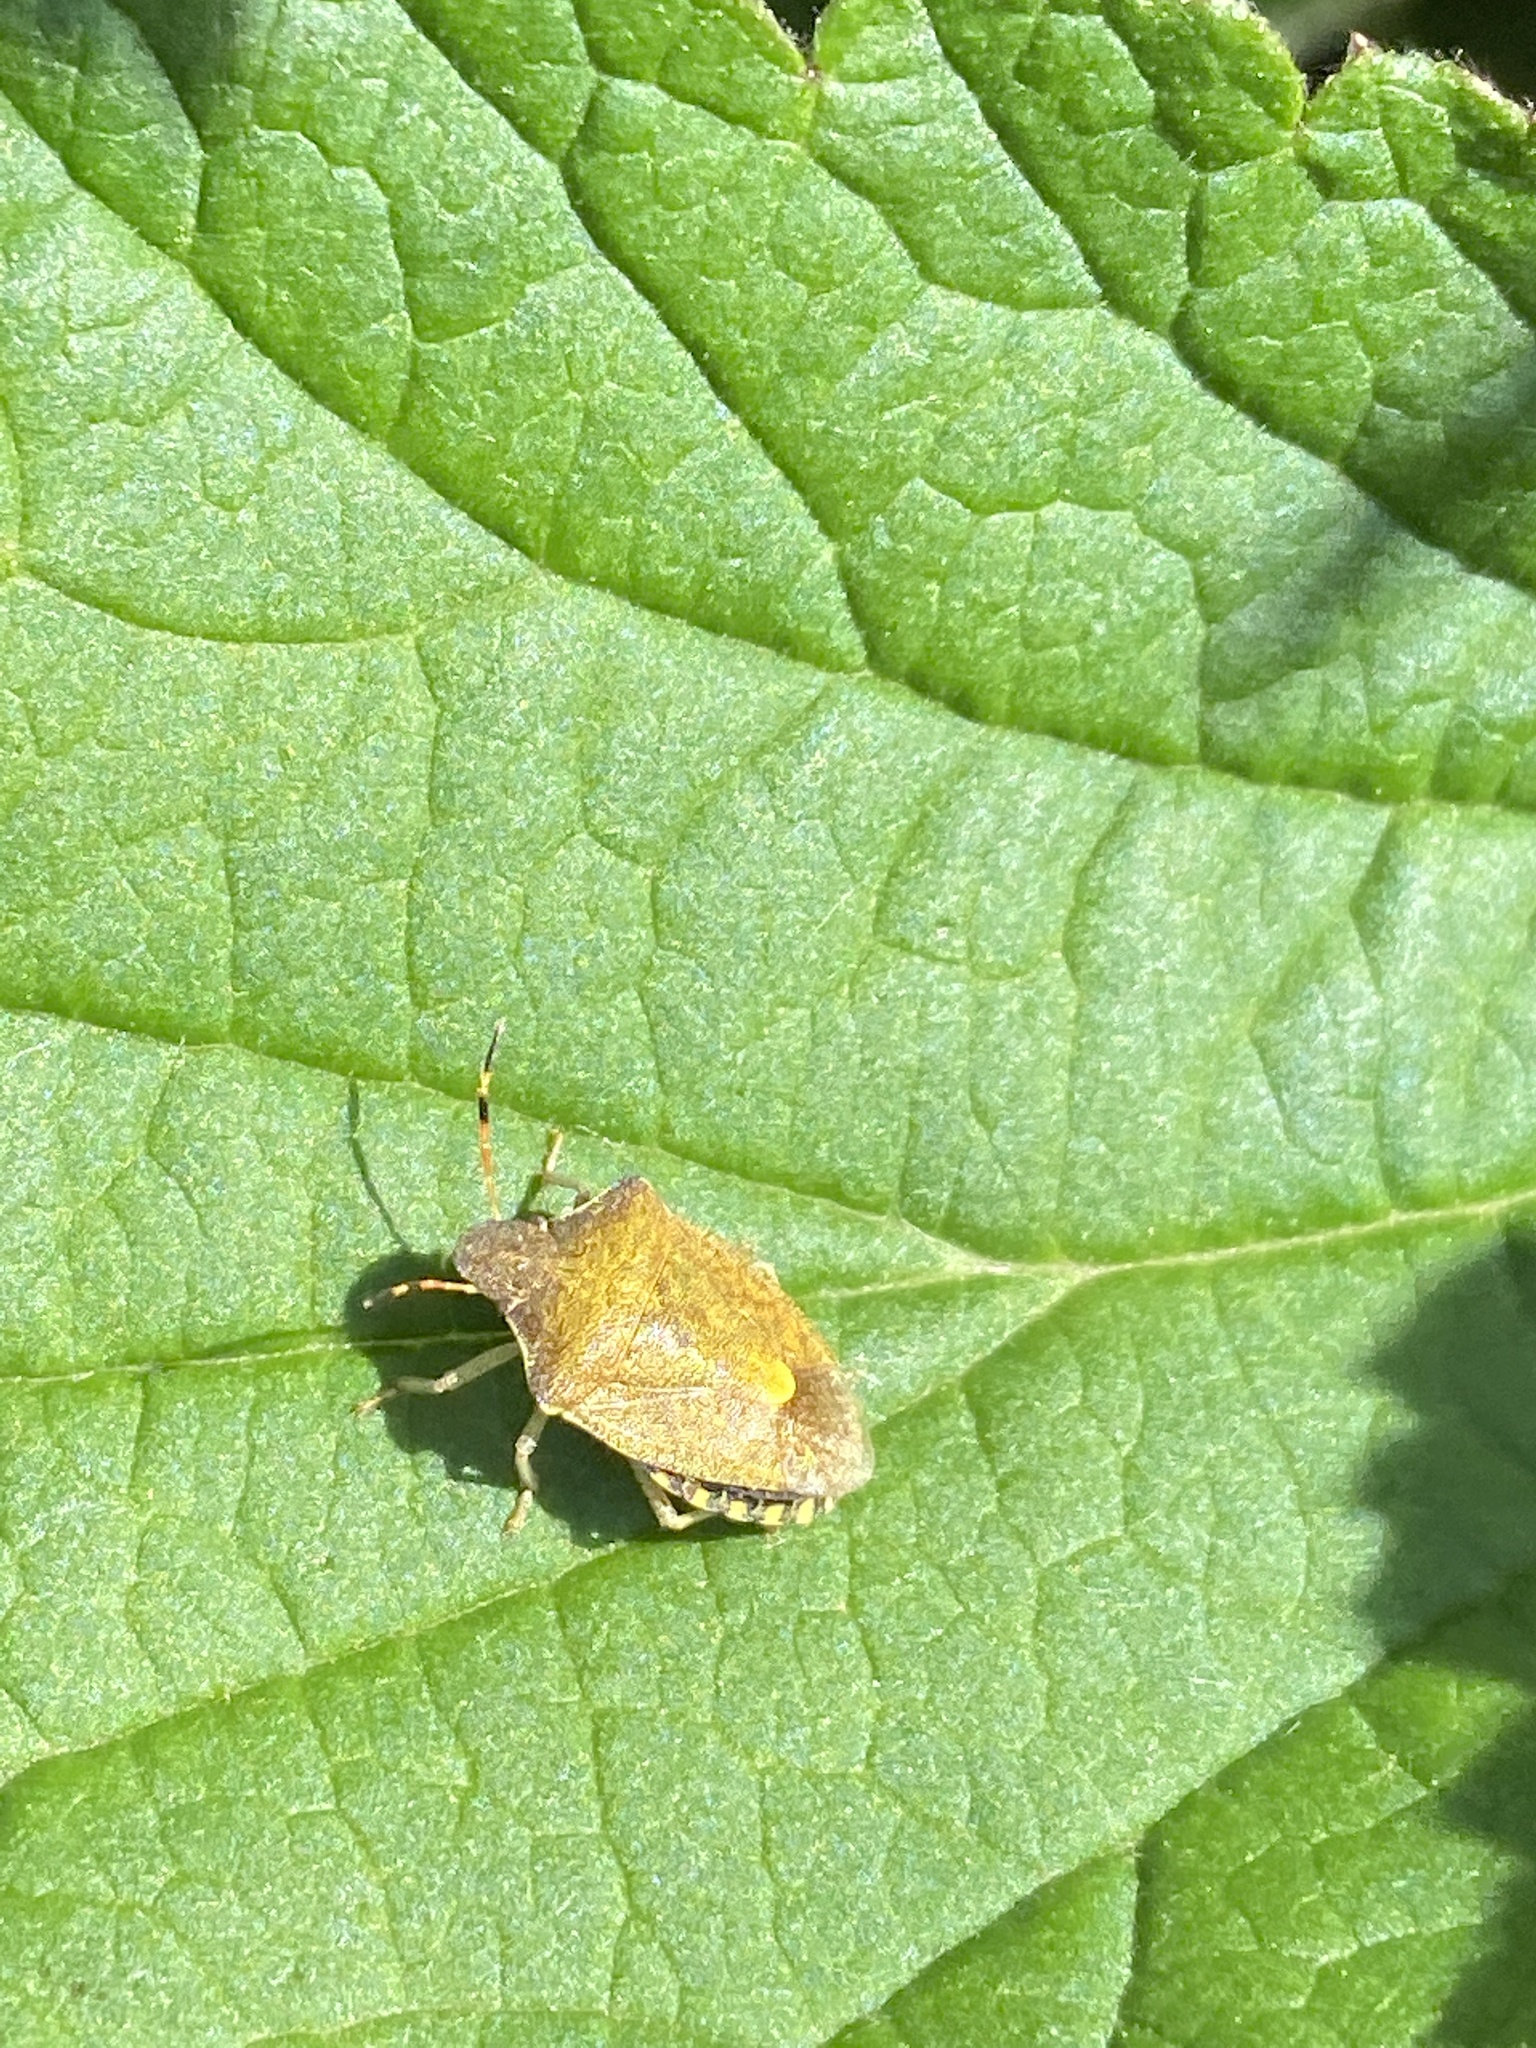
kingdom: Animalia
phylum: Arthropoda
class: Insecta
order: Hemiptera
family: Pentatomidae
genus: Holcostethus
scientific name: Holcostethus strictus
